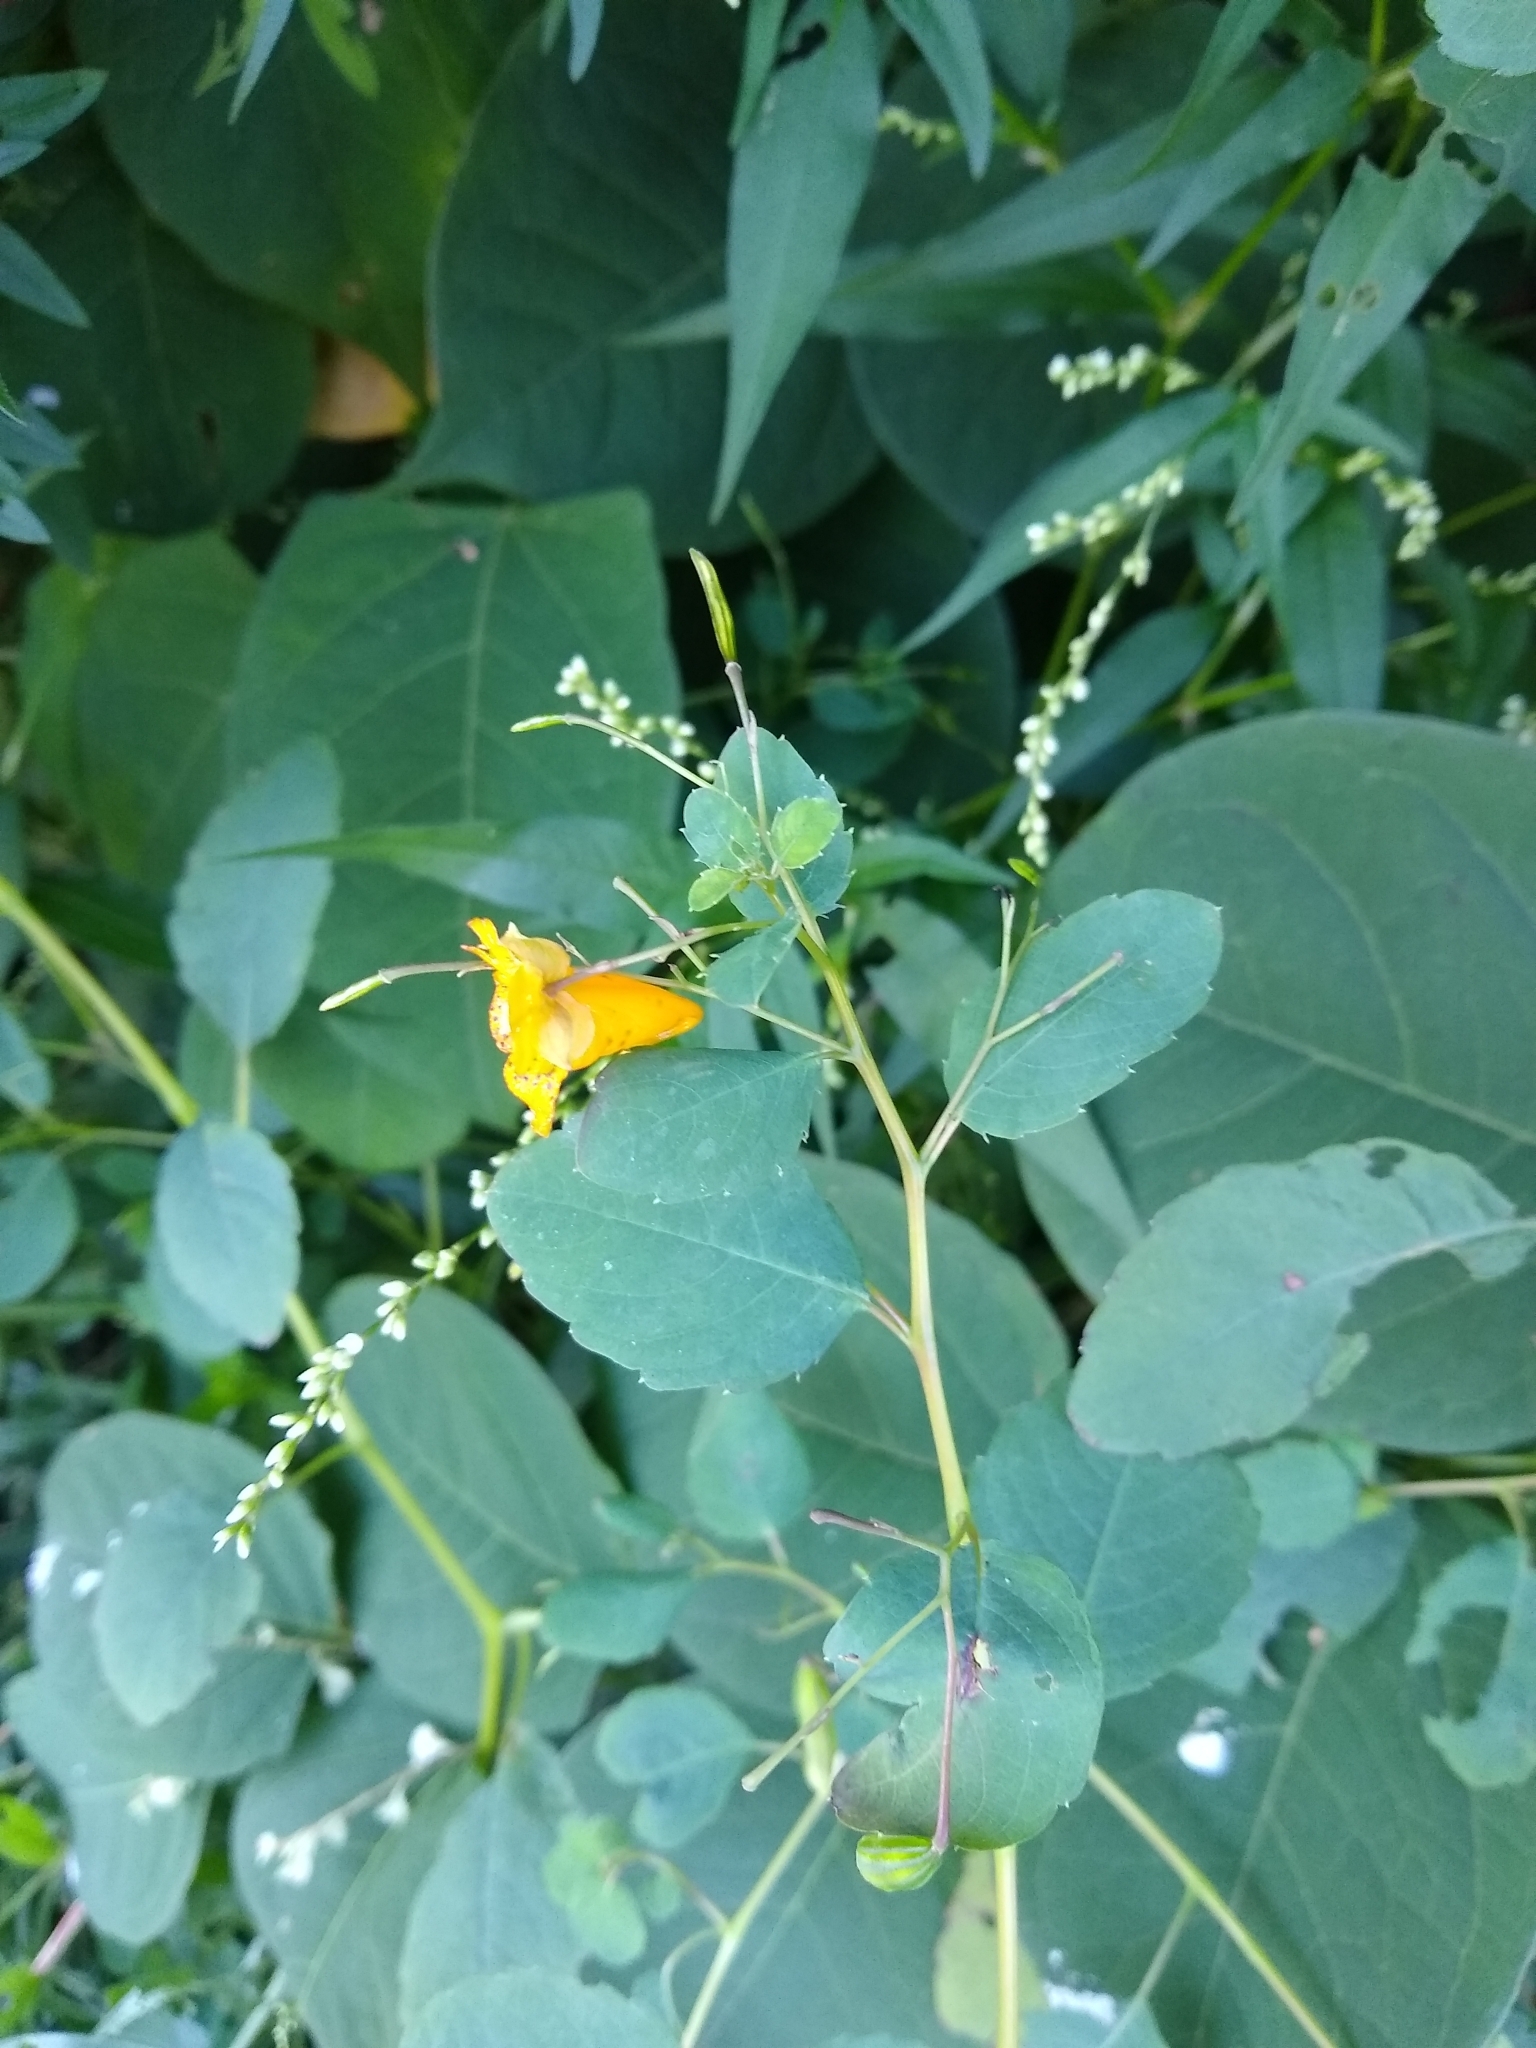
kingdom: Plantae
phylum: Tracheophyta
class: Magnoliopsida
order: Ericales
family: Balsaminaceae
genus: Impatiens
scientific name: Impatiens capensis
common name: Orange balsam
